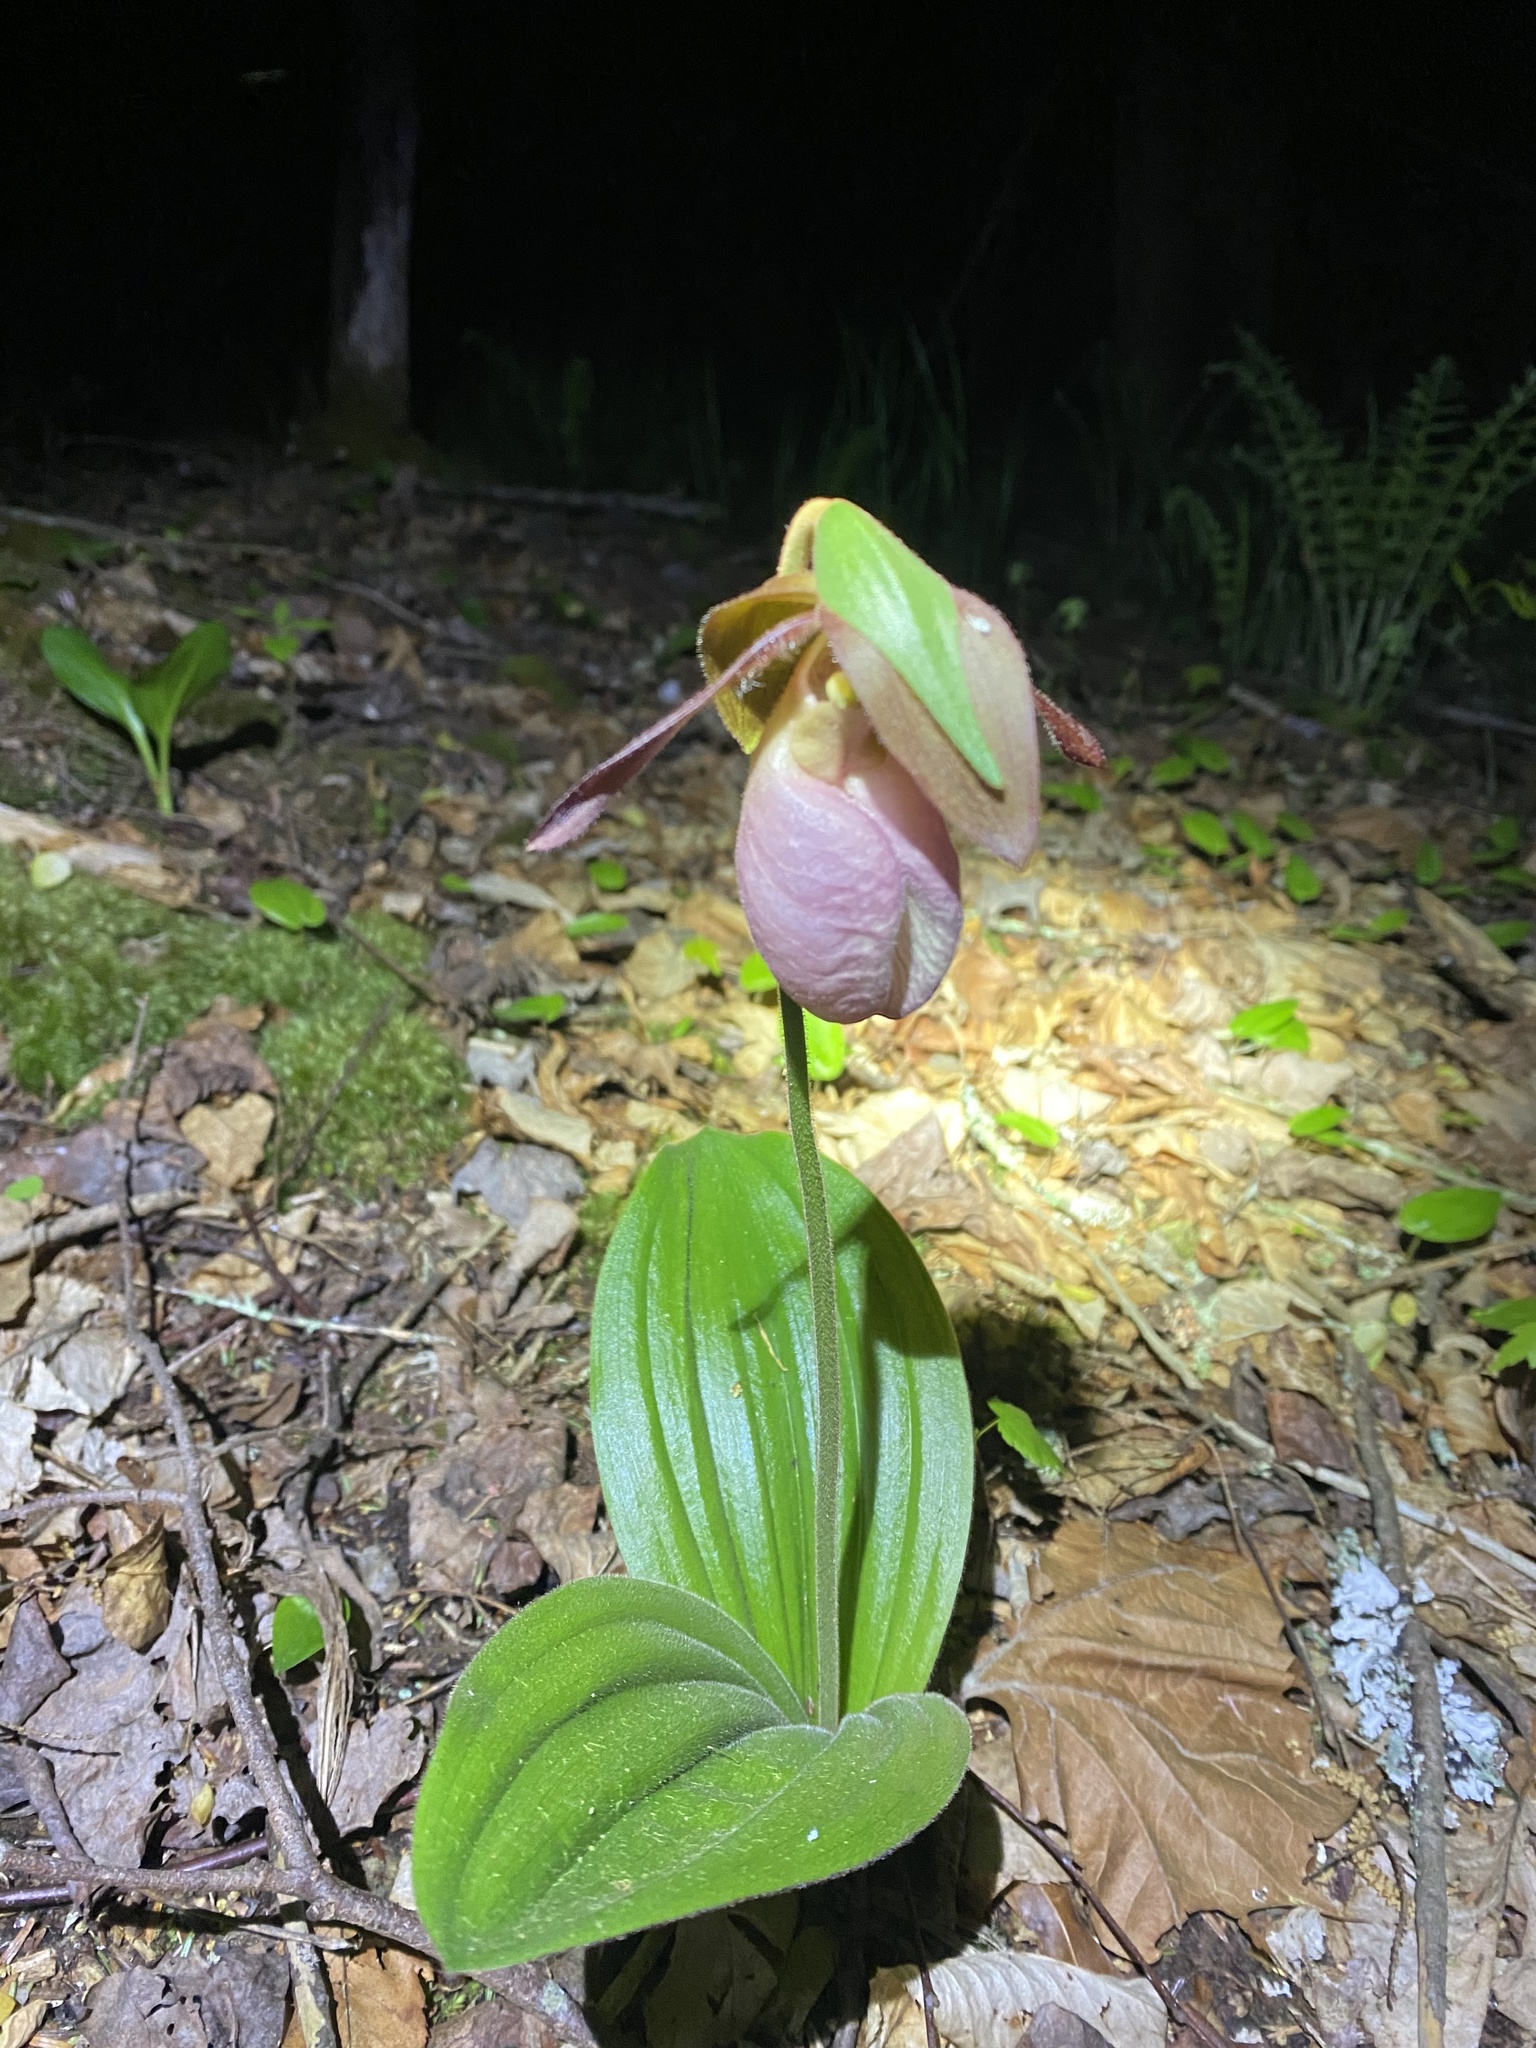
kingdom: Plantae
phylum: Tracheophyta
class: Liliopsida
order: Asparagales
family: Orchidaceae
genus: Cypripedium
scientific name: Cypripedium acaule
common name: Pink lady's-slipper
